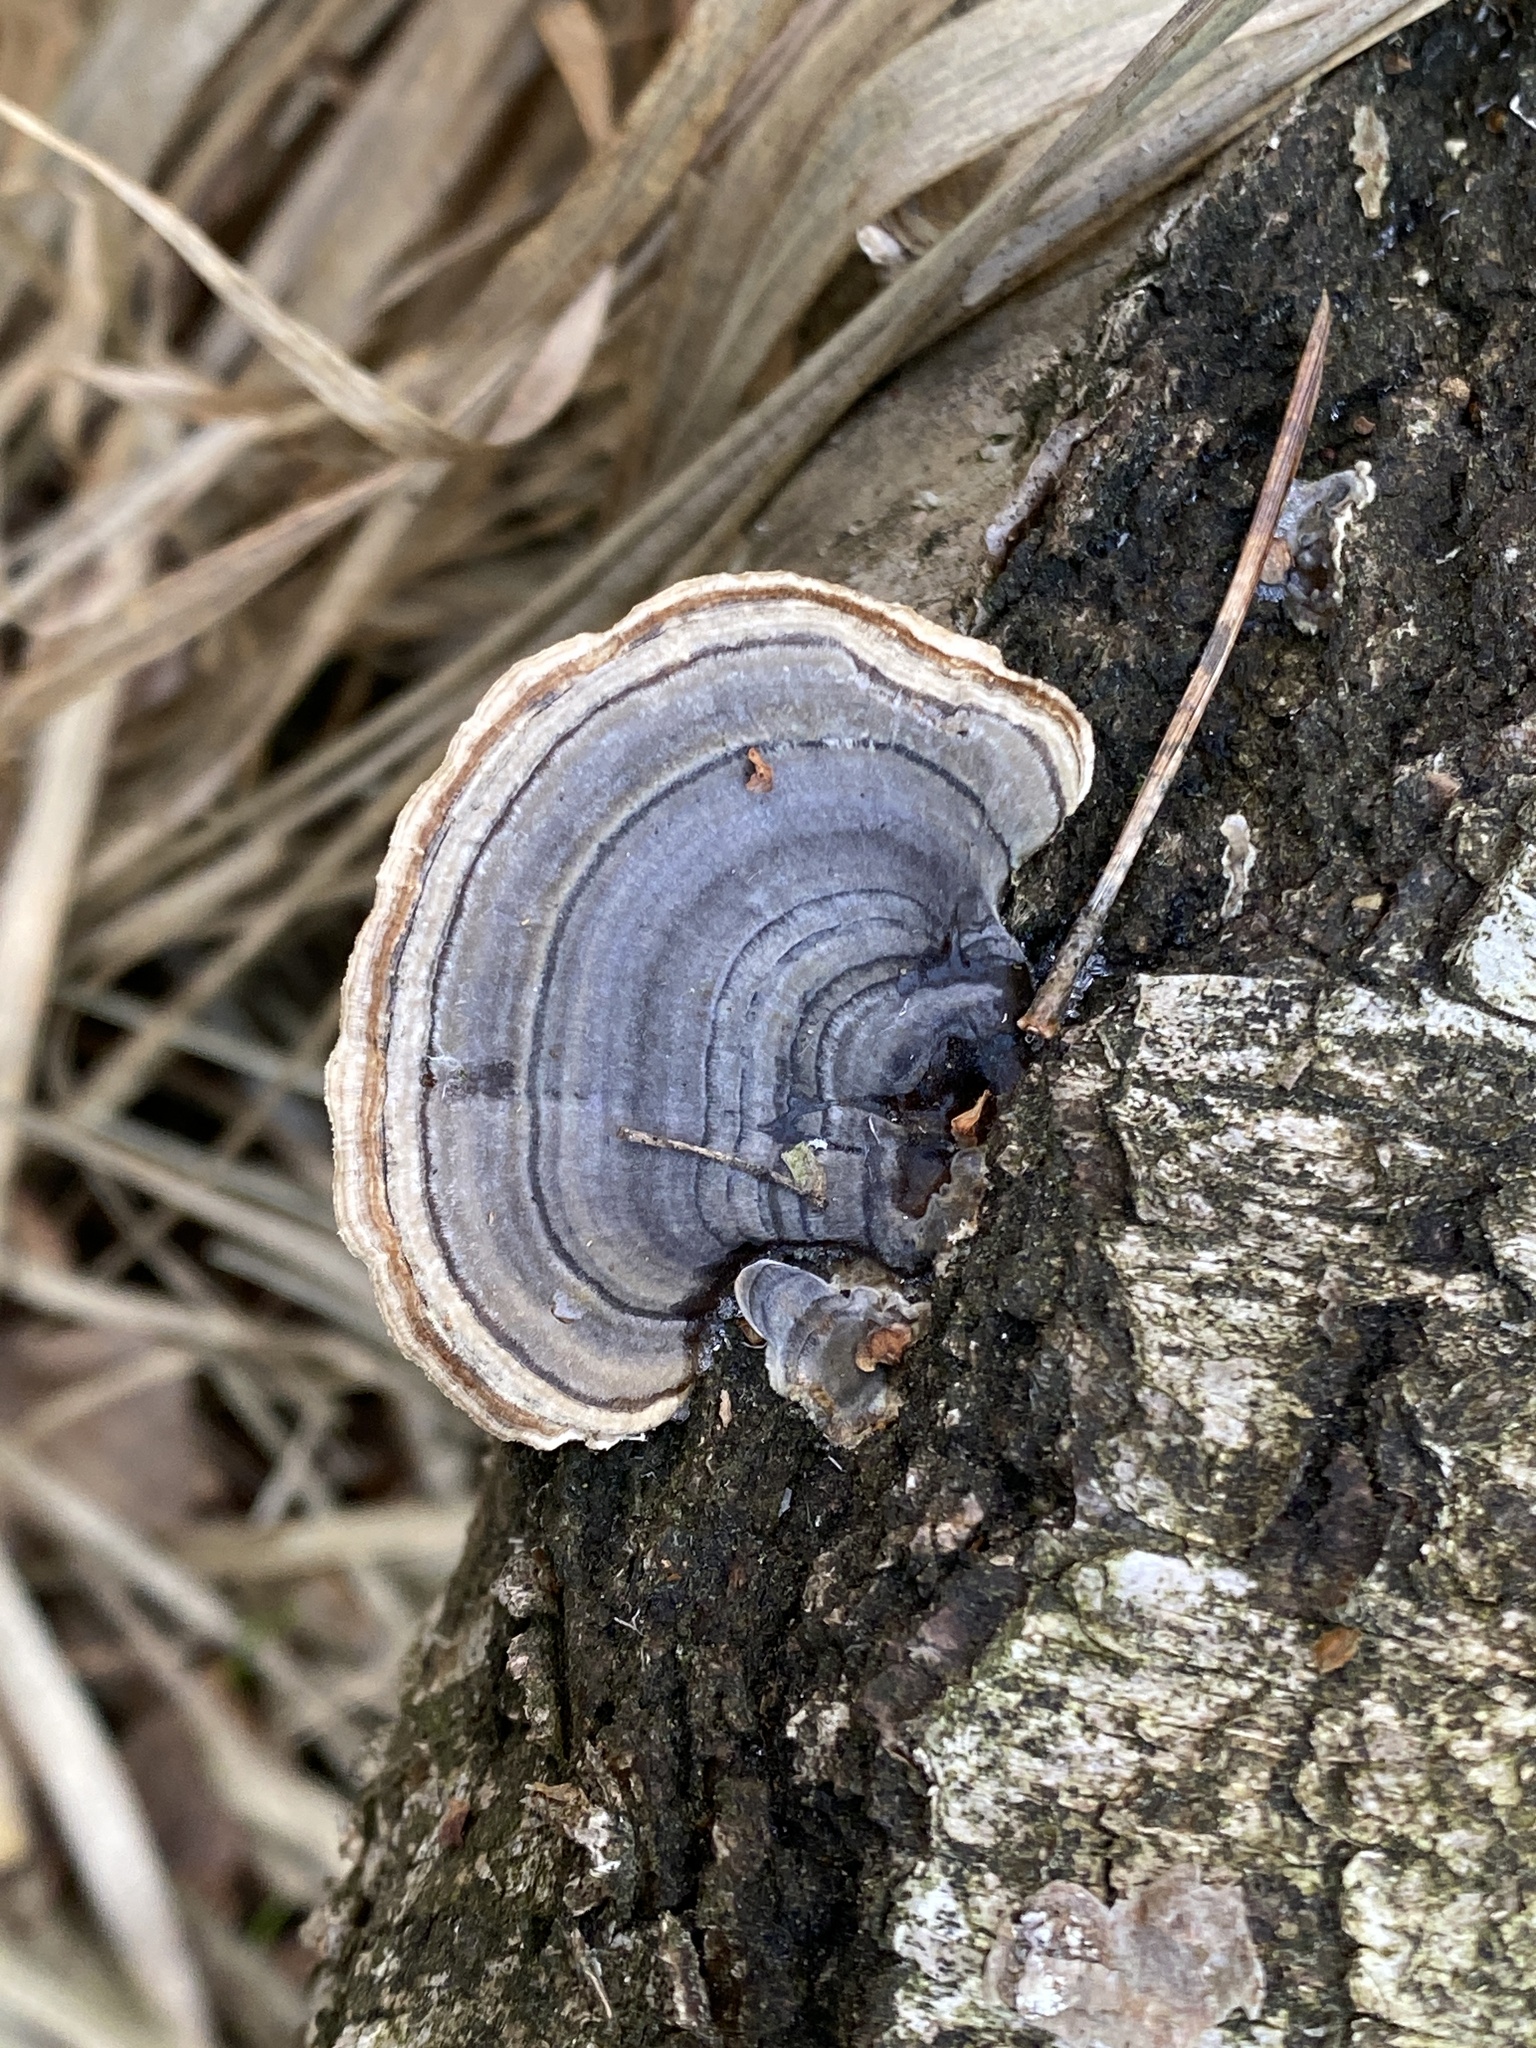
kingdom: Fungi
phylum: Basidiomycota
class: Agaricomycetes
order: Polyporales
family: Polyporaceae
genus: Trametes
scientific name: Trametes versicolor
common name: Turkeytail
